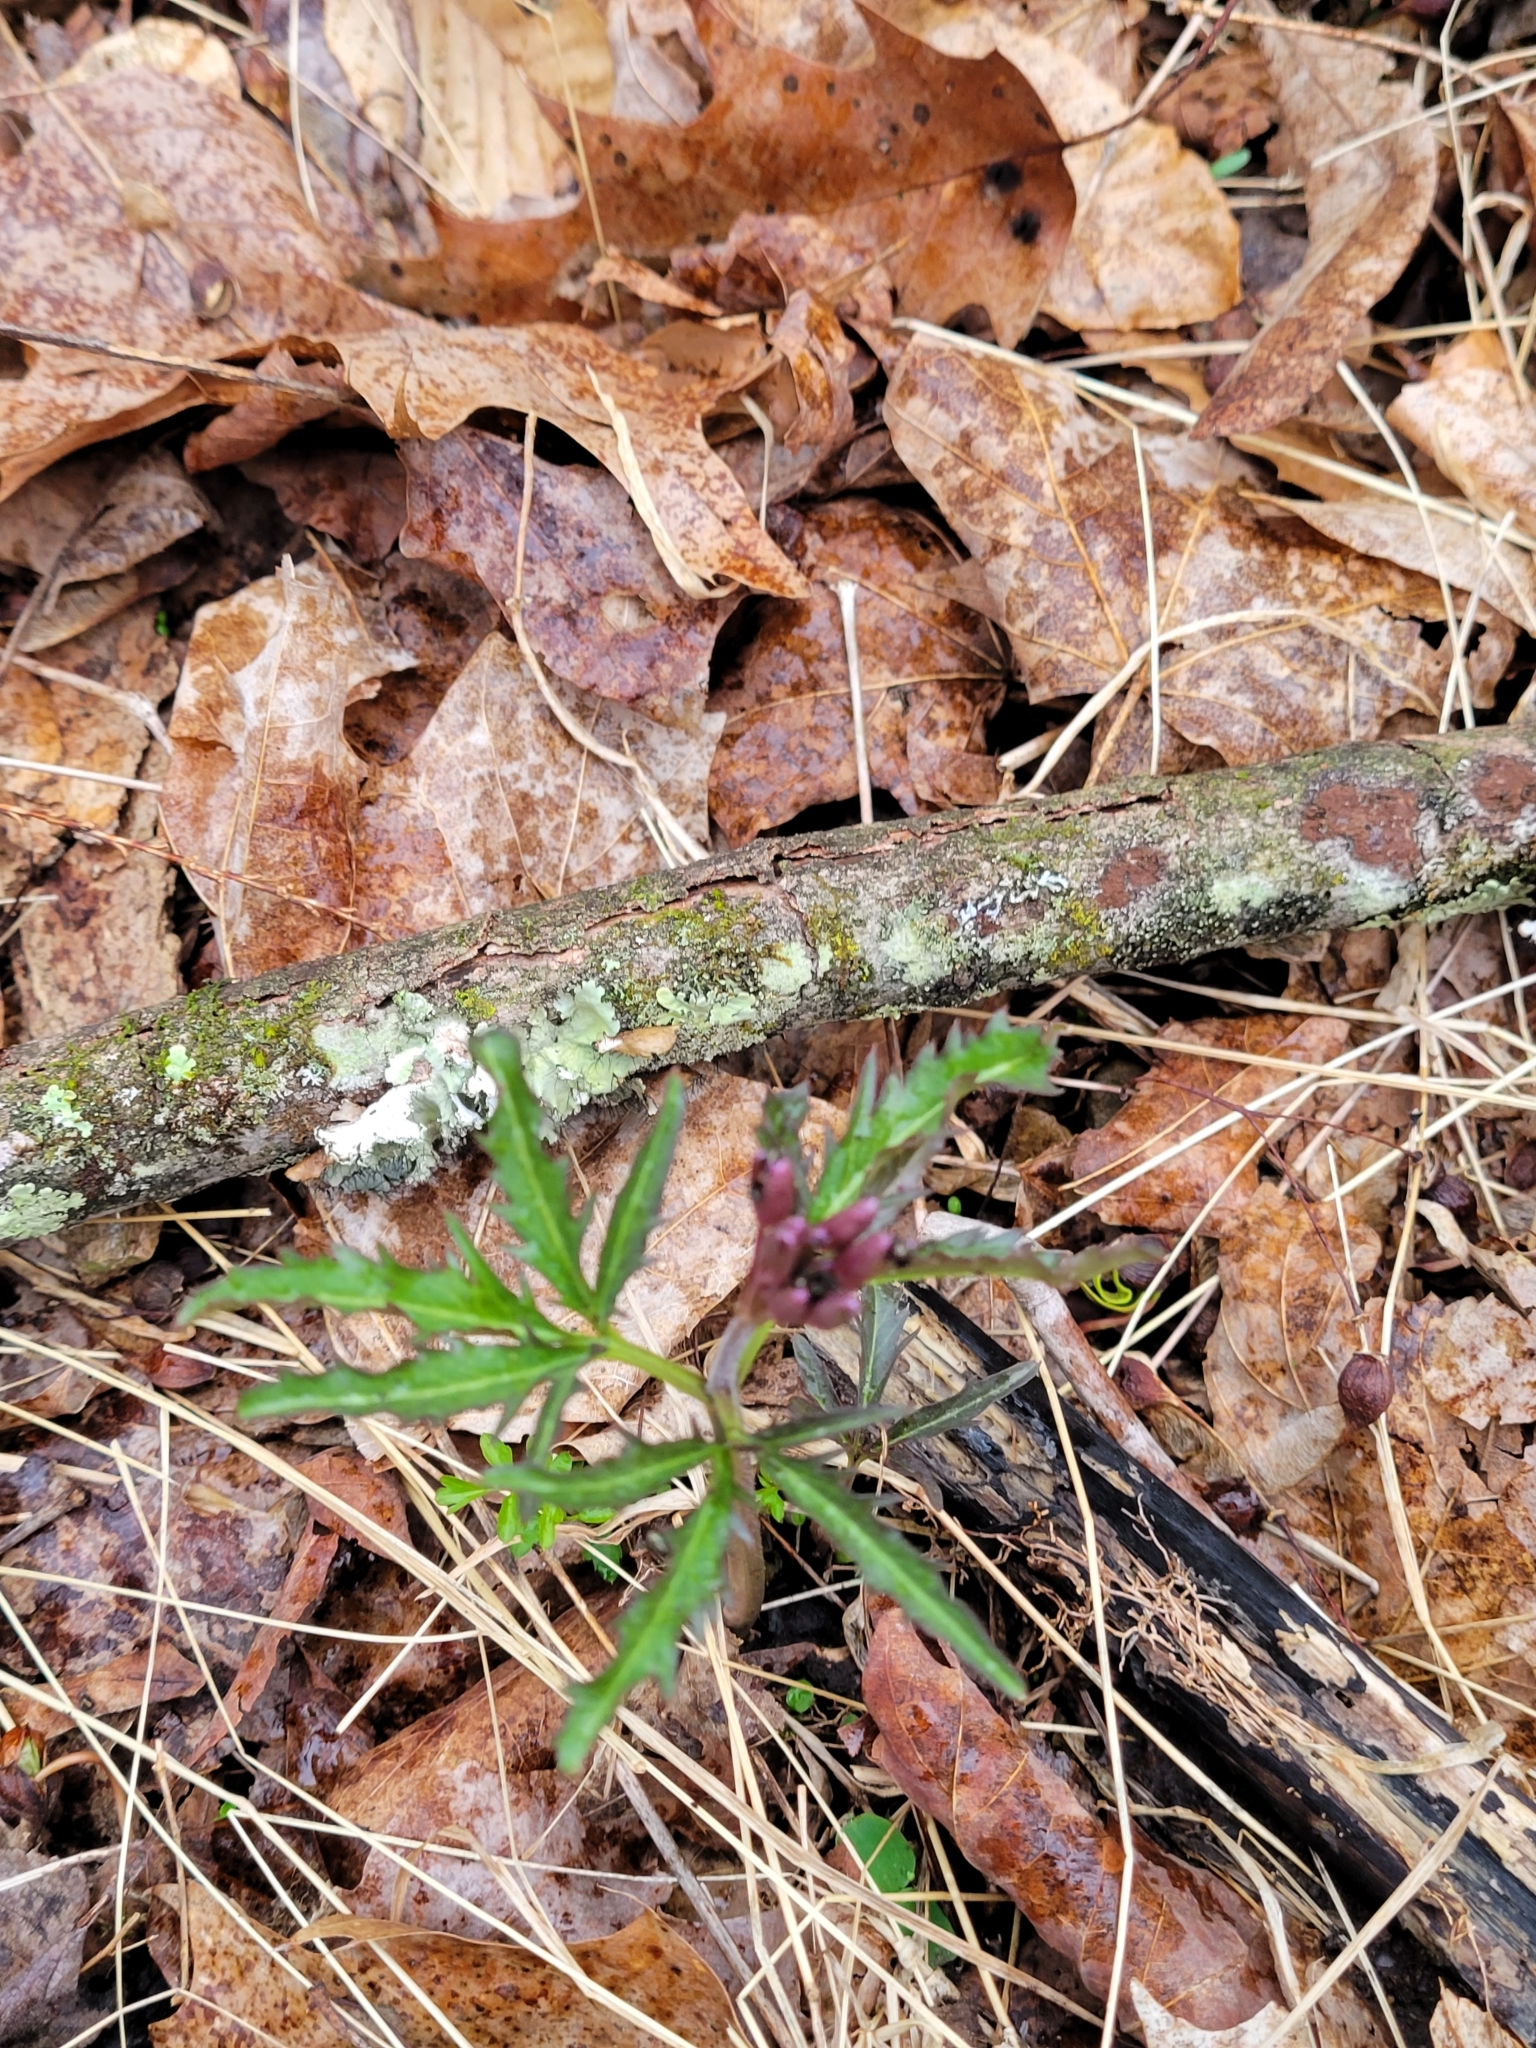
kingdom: Plantae
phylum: Tracheophyta
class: Magnoliopsida
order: Brassicales
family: Brassicaceae
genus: Cardamine
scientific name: Cardamine concatenata
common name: Cut-leaf toothcup
